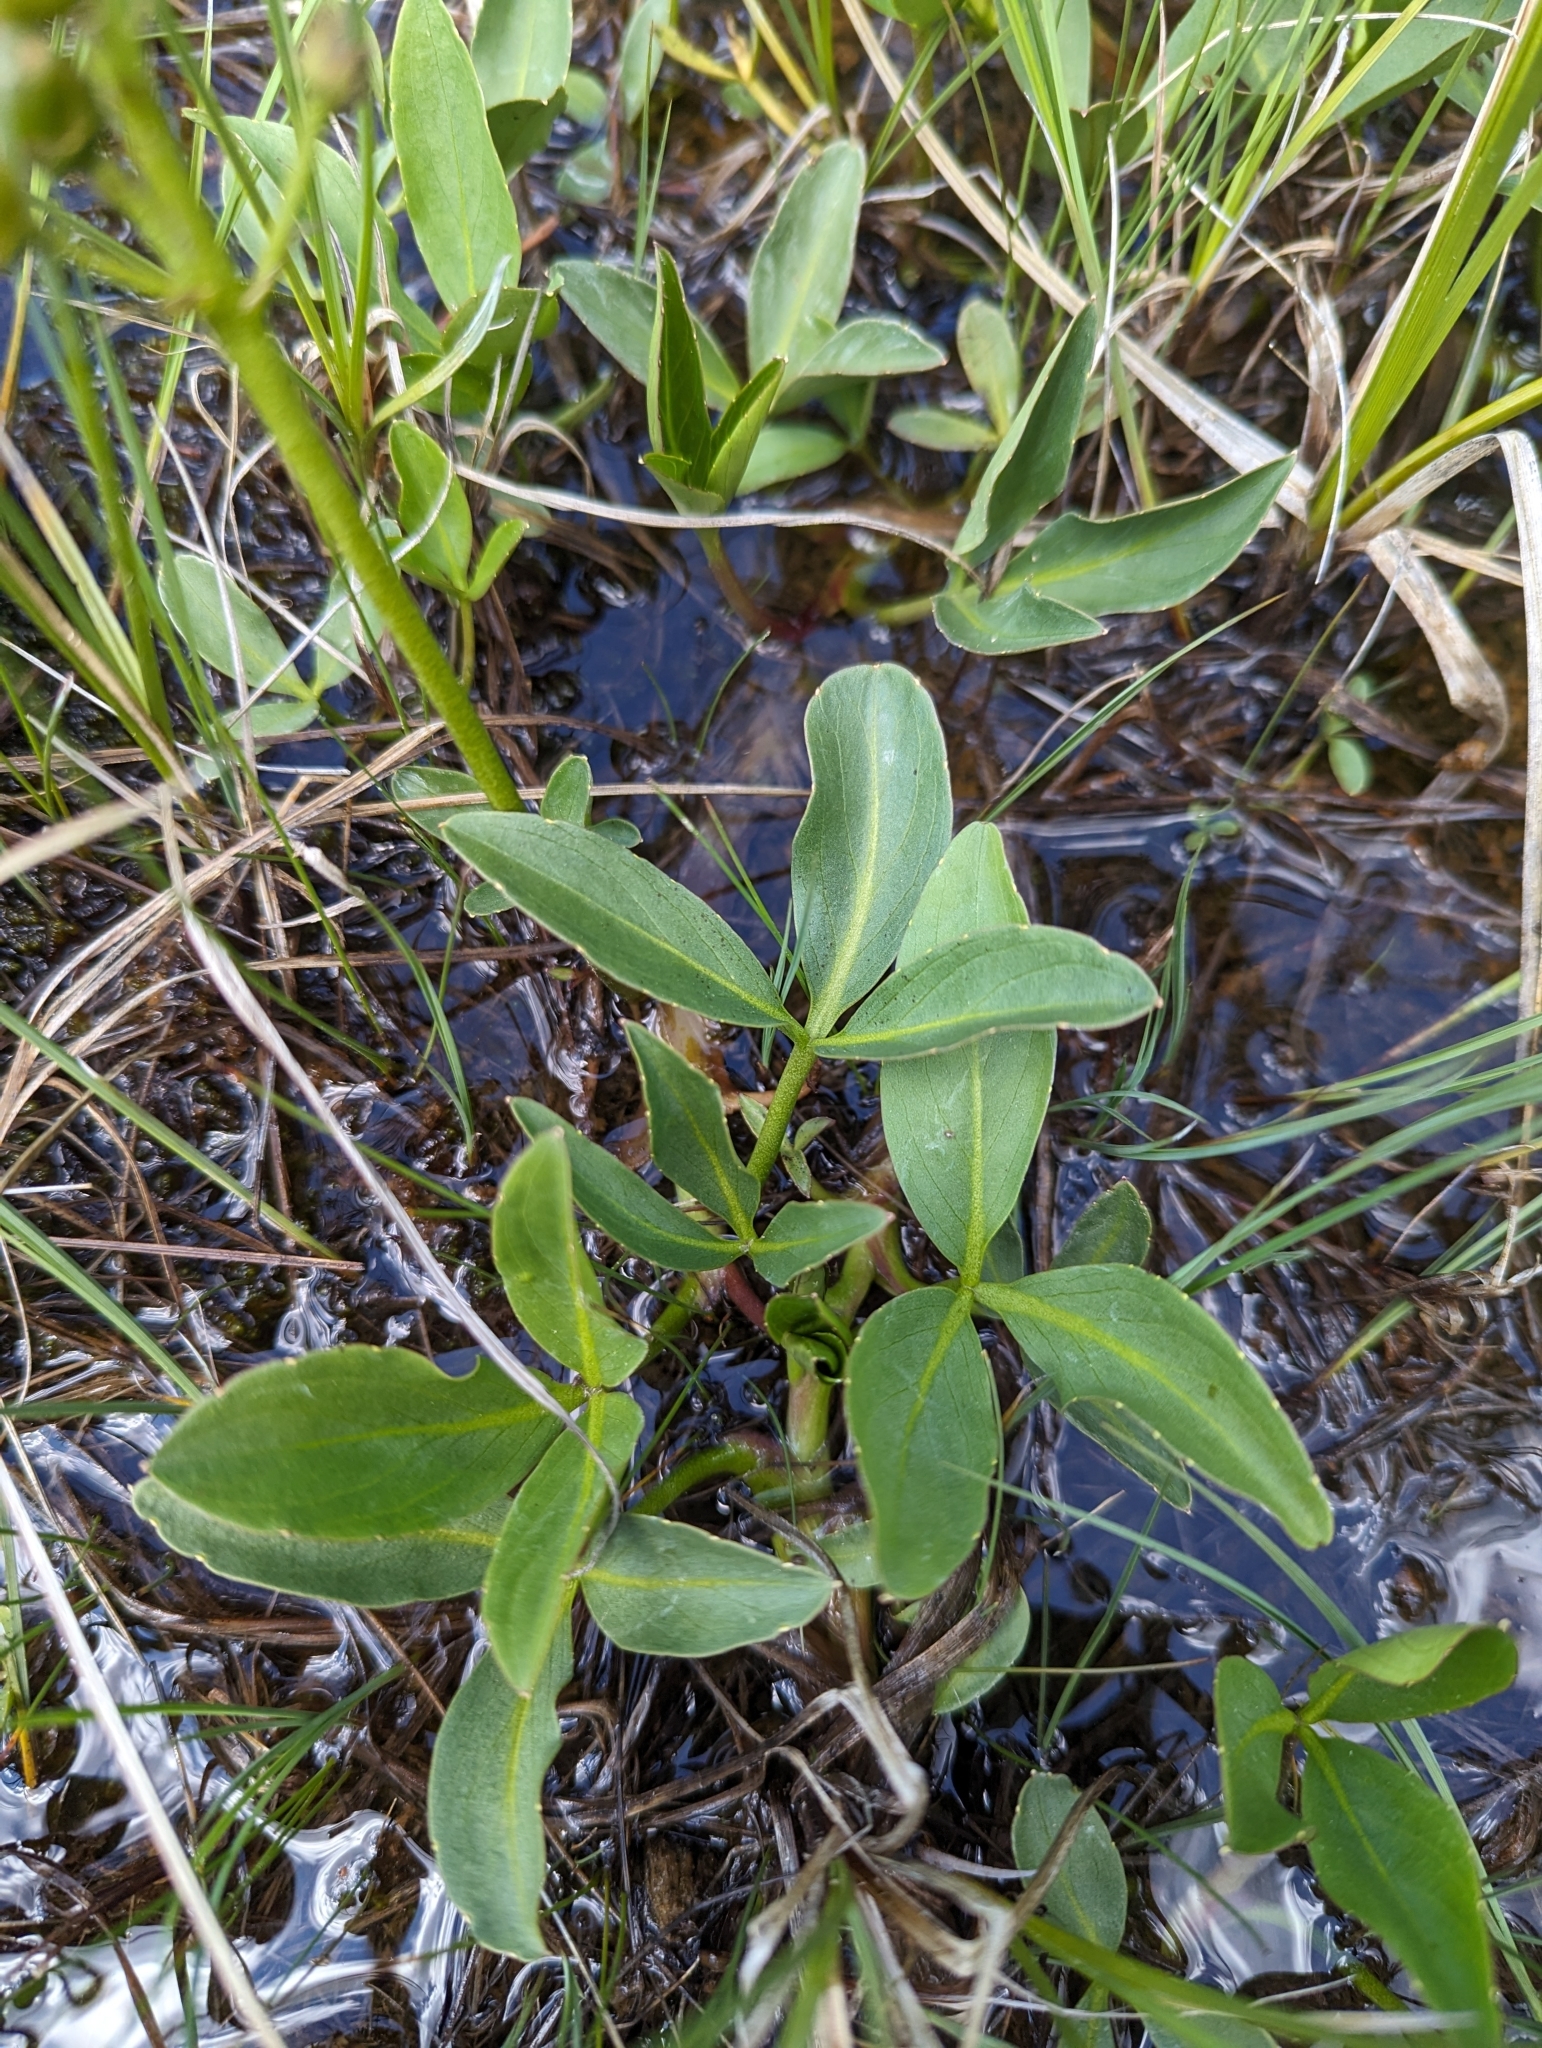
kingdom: Plantae
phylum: Tracheophyta
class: Magnoliopsida
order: Asterales
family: Menyanthaceae
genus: Menyanthes
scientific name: Menyanthes trifoliata
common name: Bogbean
